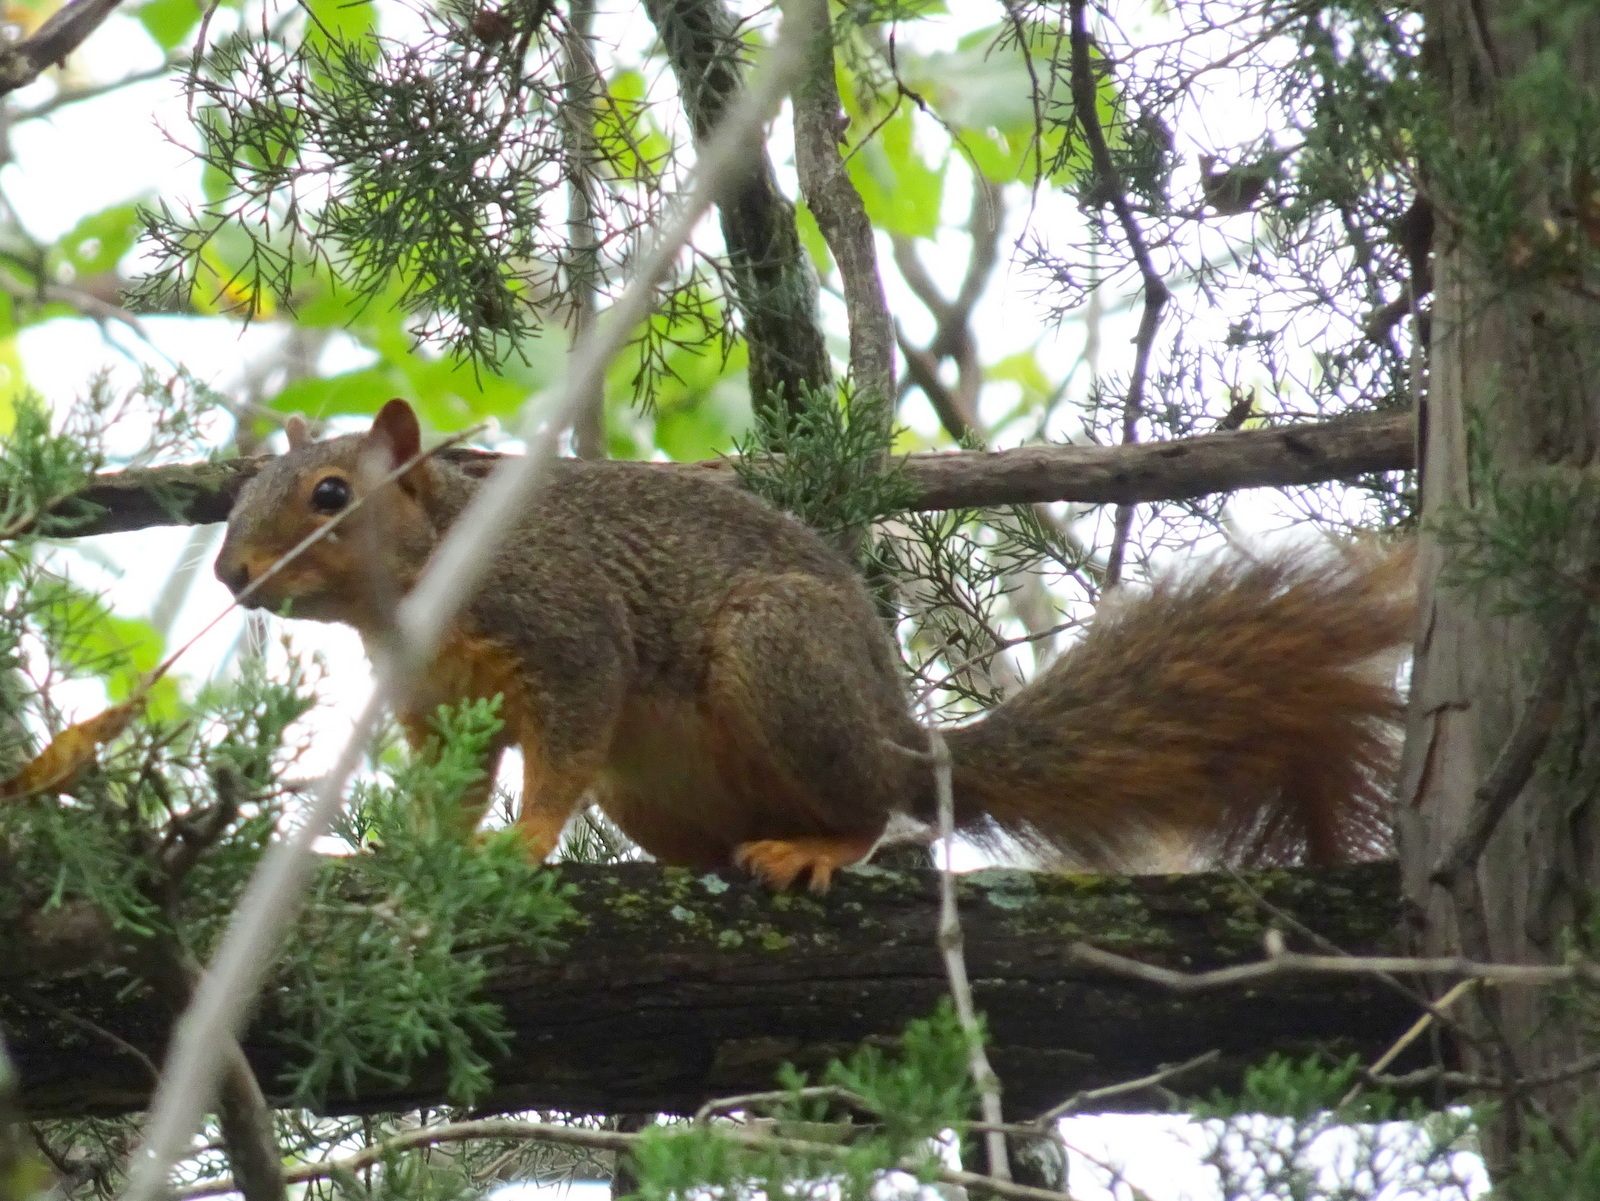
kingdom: Animalia
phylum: Chordata
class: Mammalia
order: Rodentia
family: Sciuridae
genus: Sciurus
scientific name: Sciurus niger
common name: Fox squirrel
